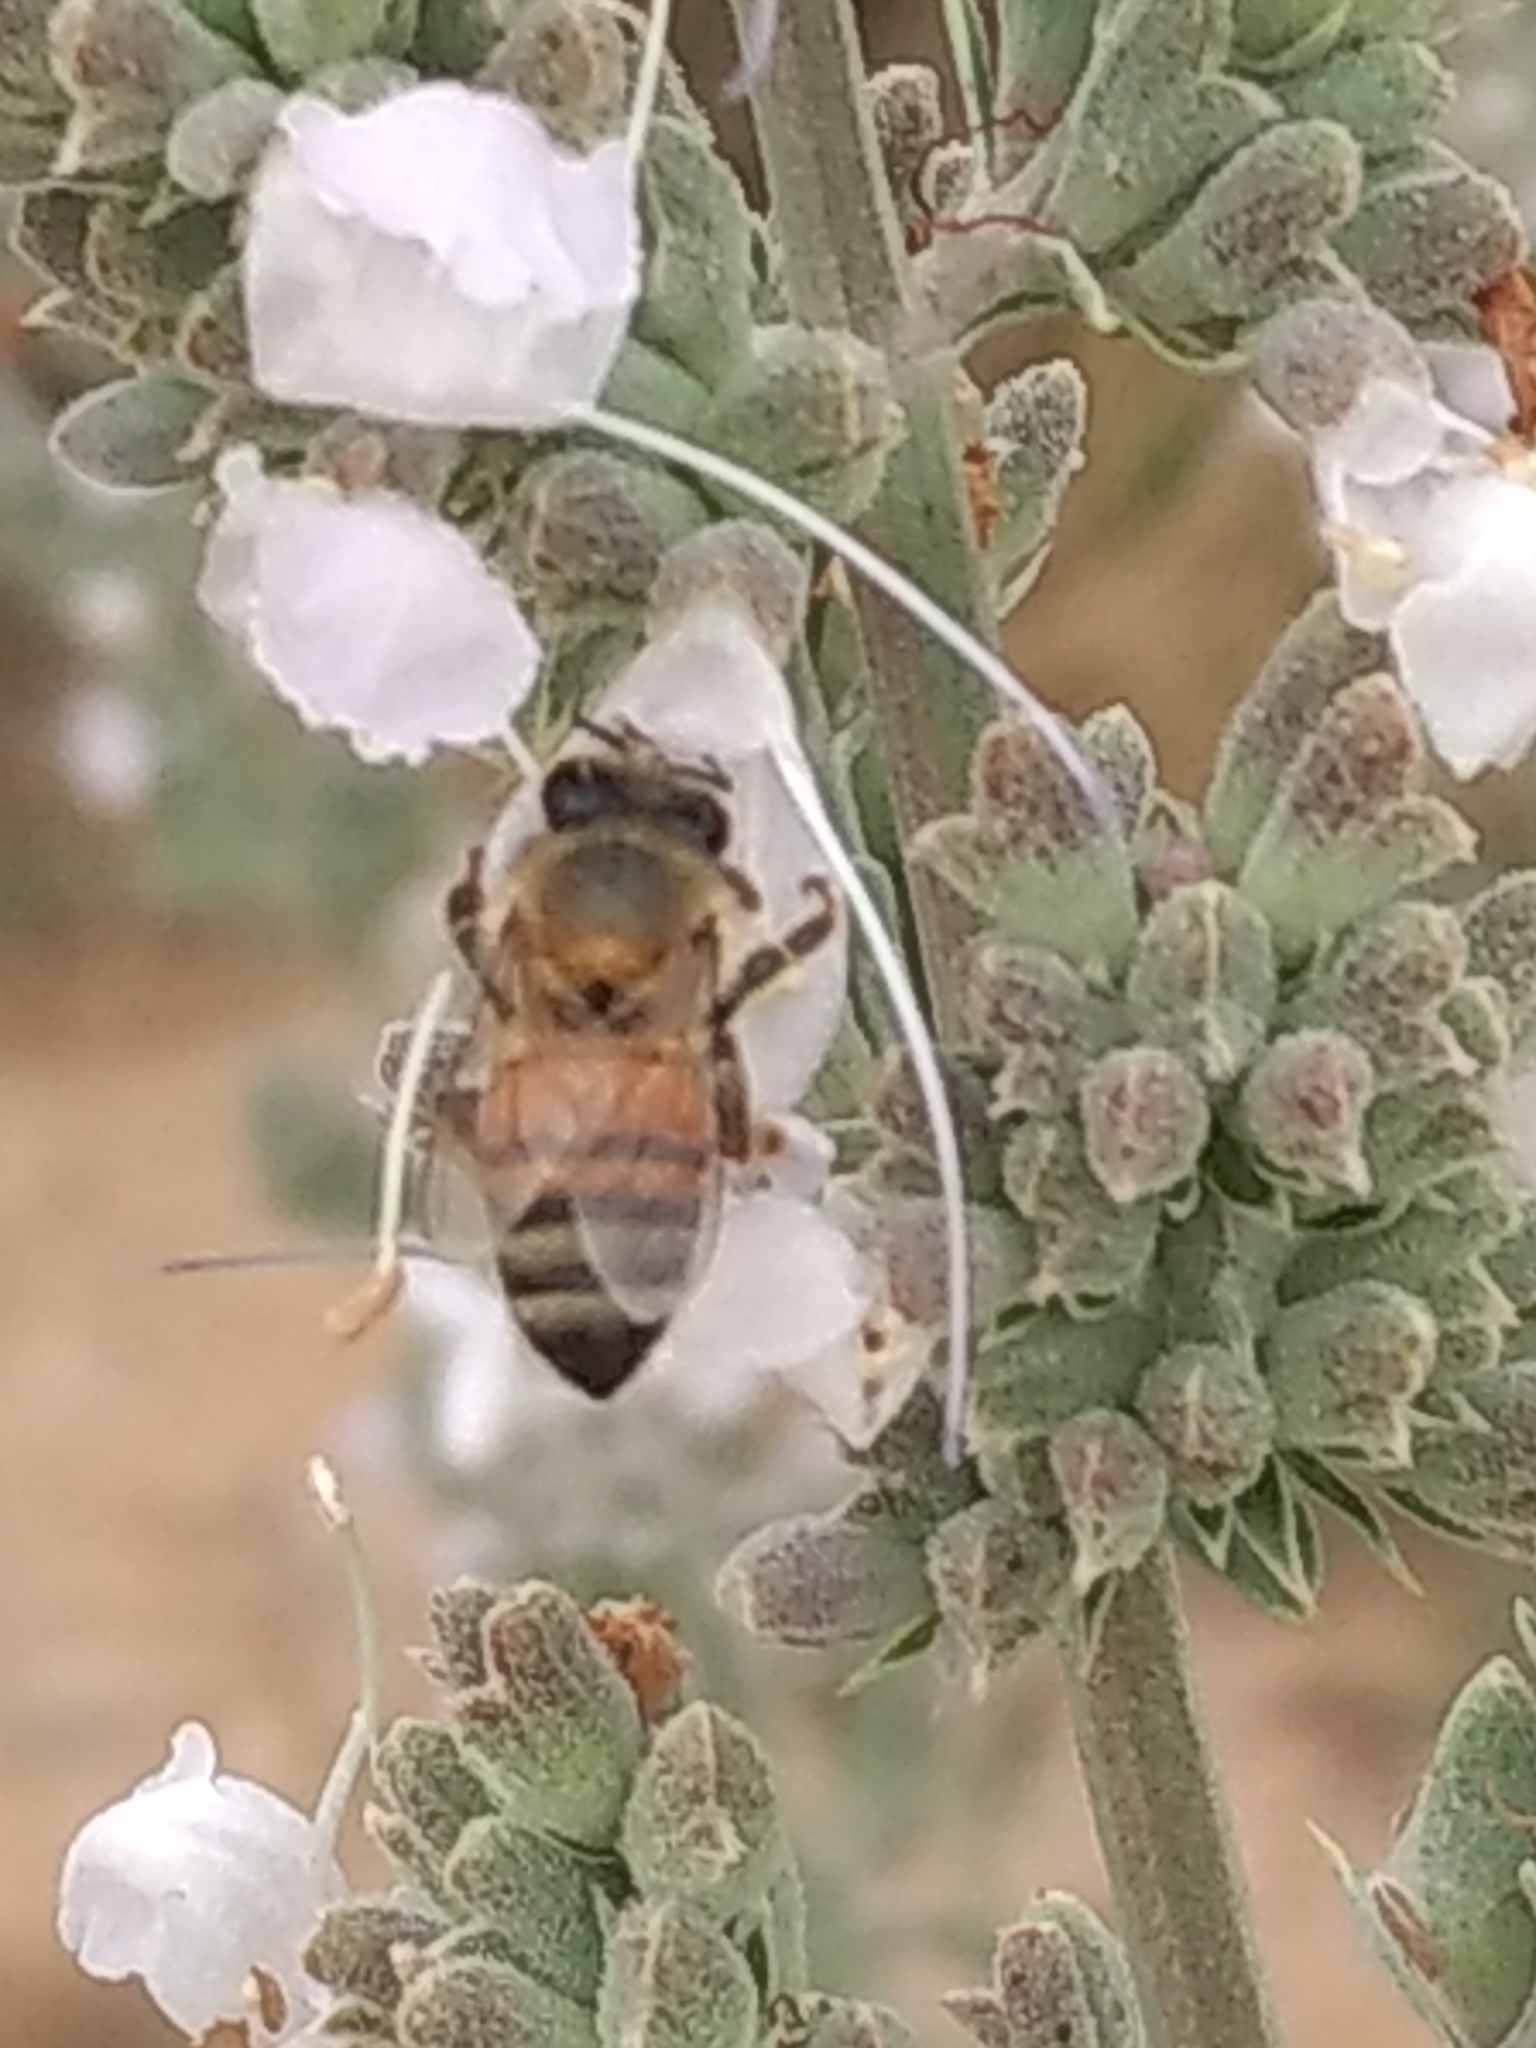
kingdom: Animalia
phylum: Arthropoda
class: Insecta
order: Hymenoptera
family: Apidae
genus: Apis
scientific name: Apis mellifera
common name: Honey bee
